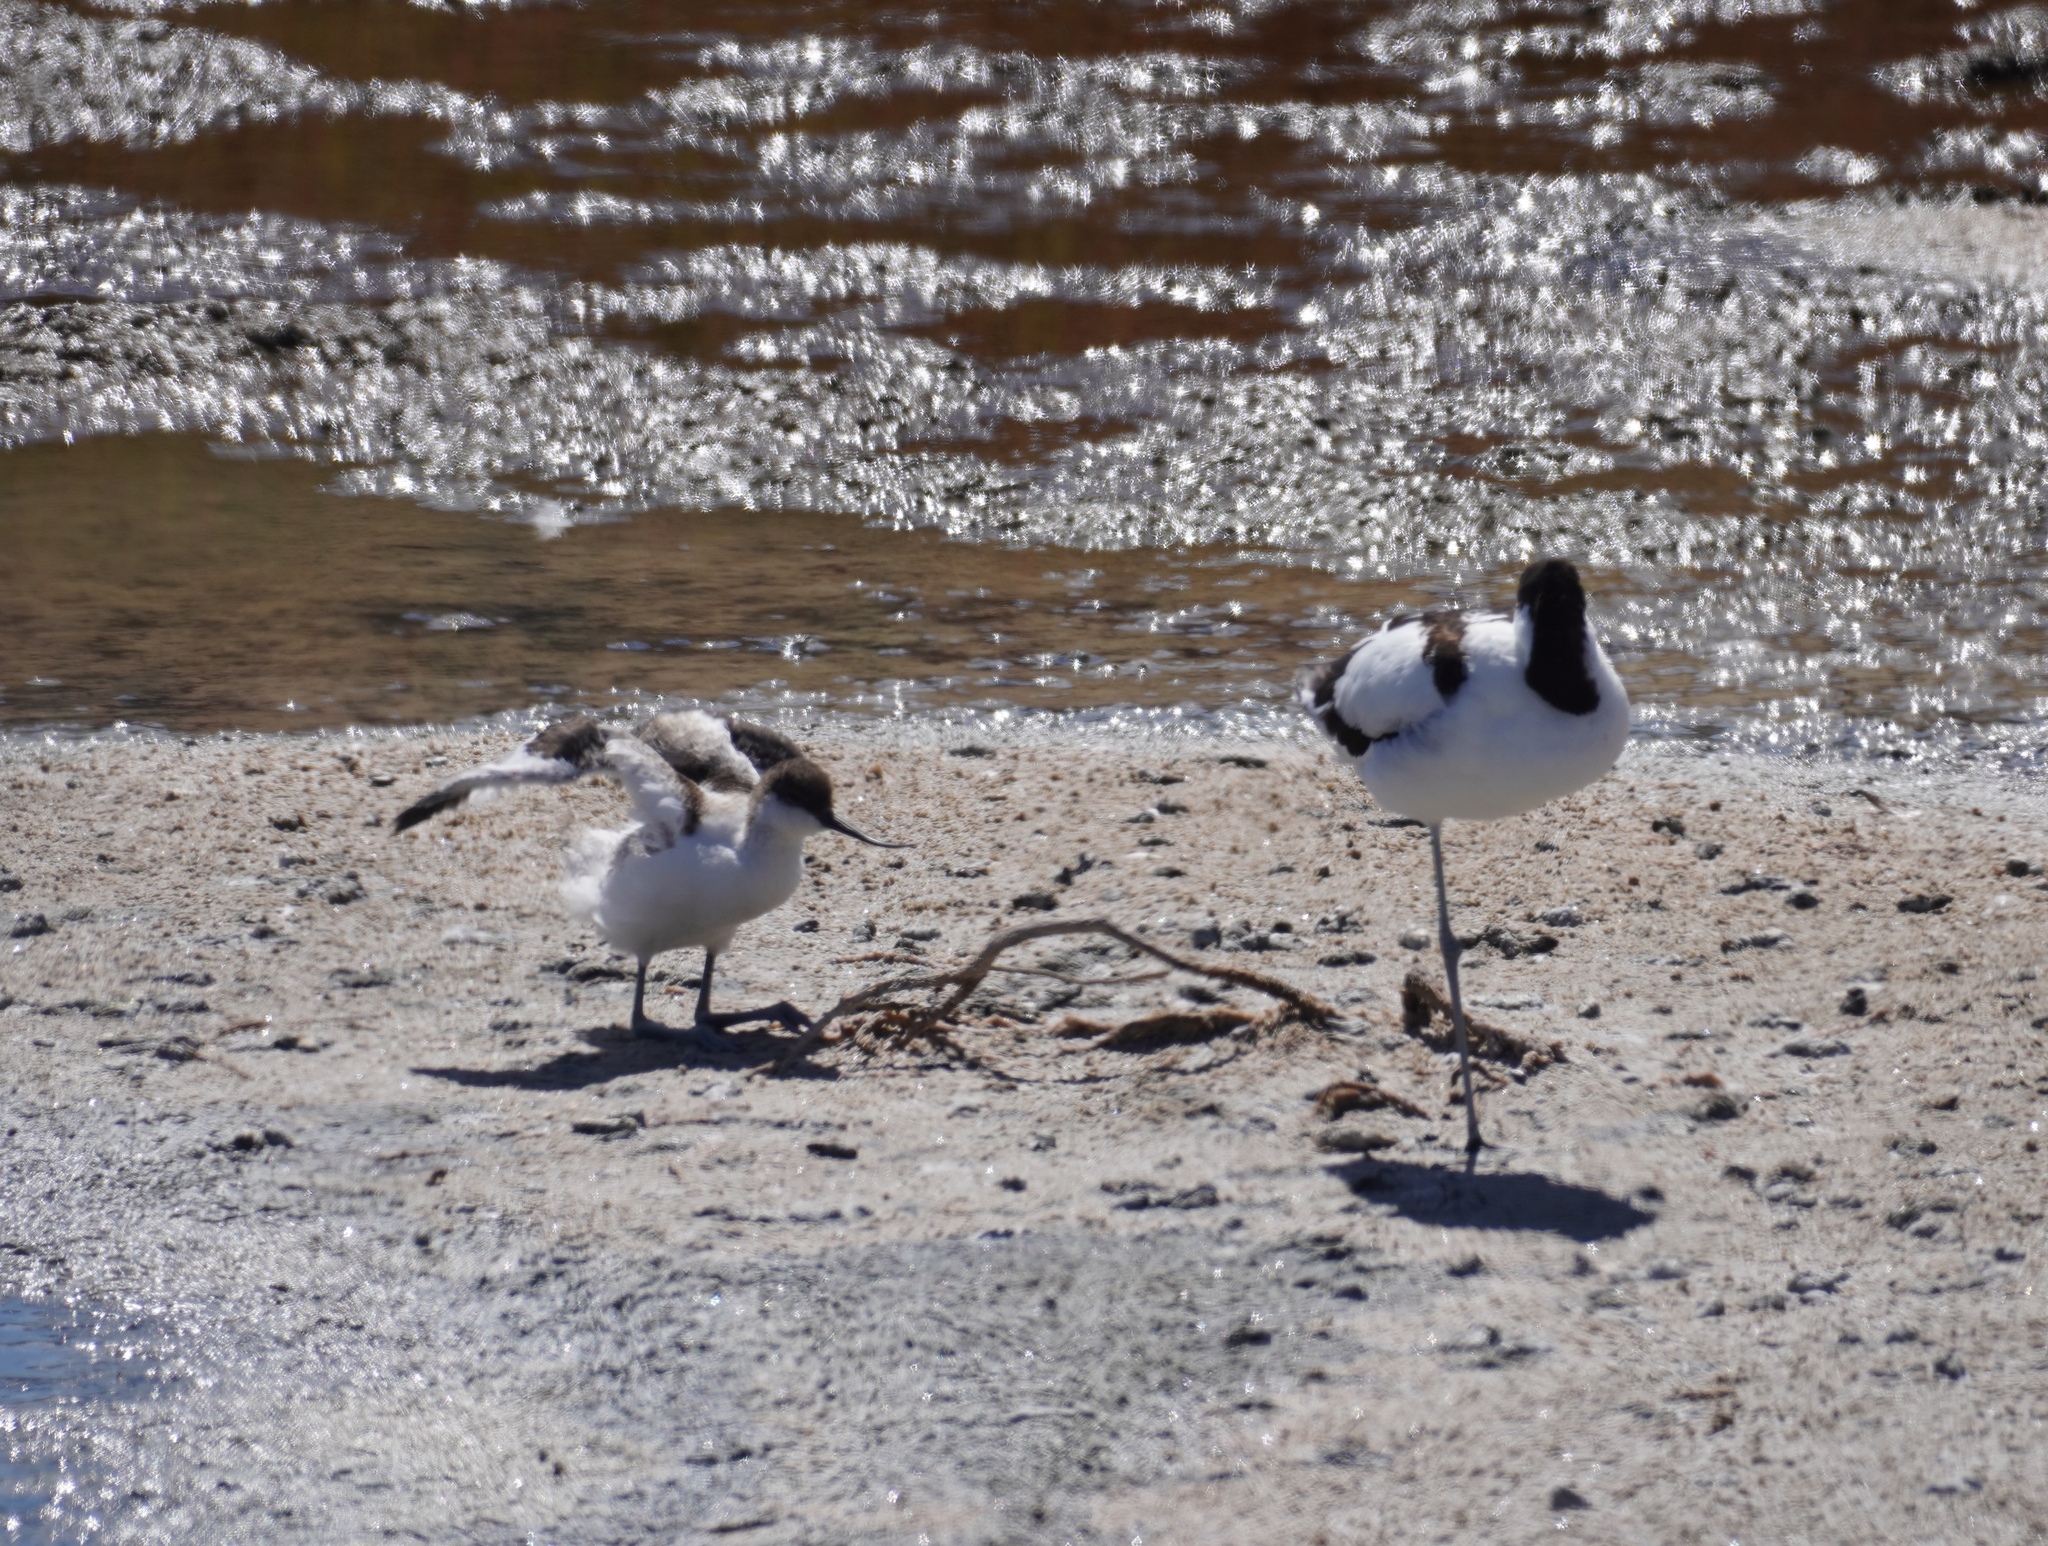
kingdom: Animalia
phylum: Chordata
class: Aves
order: Charadriiformes
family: Recurvirostridae
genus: Recurvirostra
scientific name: Recurvirostra avosetta
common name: Pied avocet
